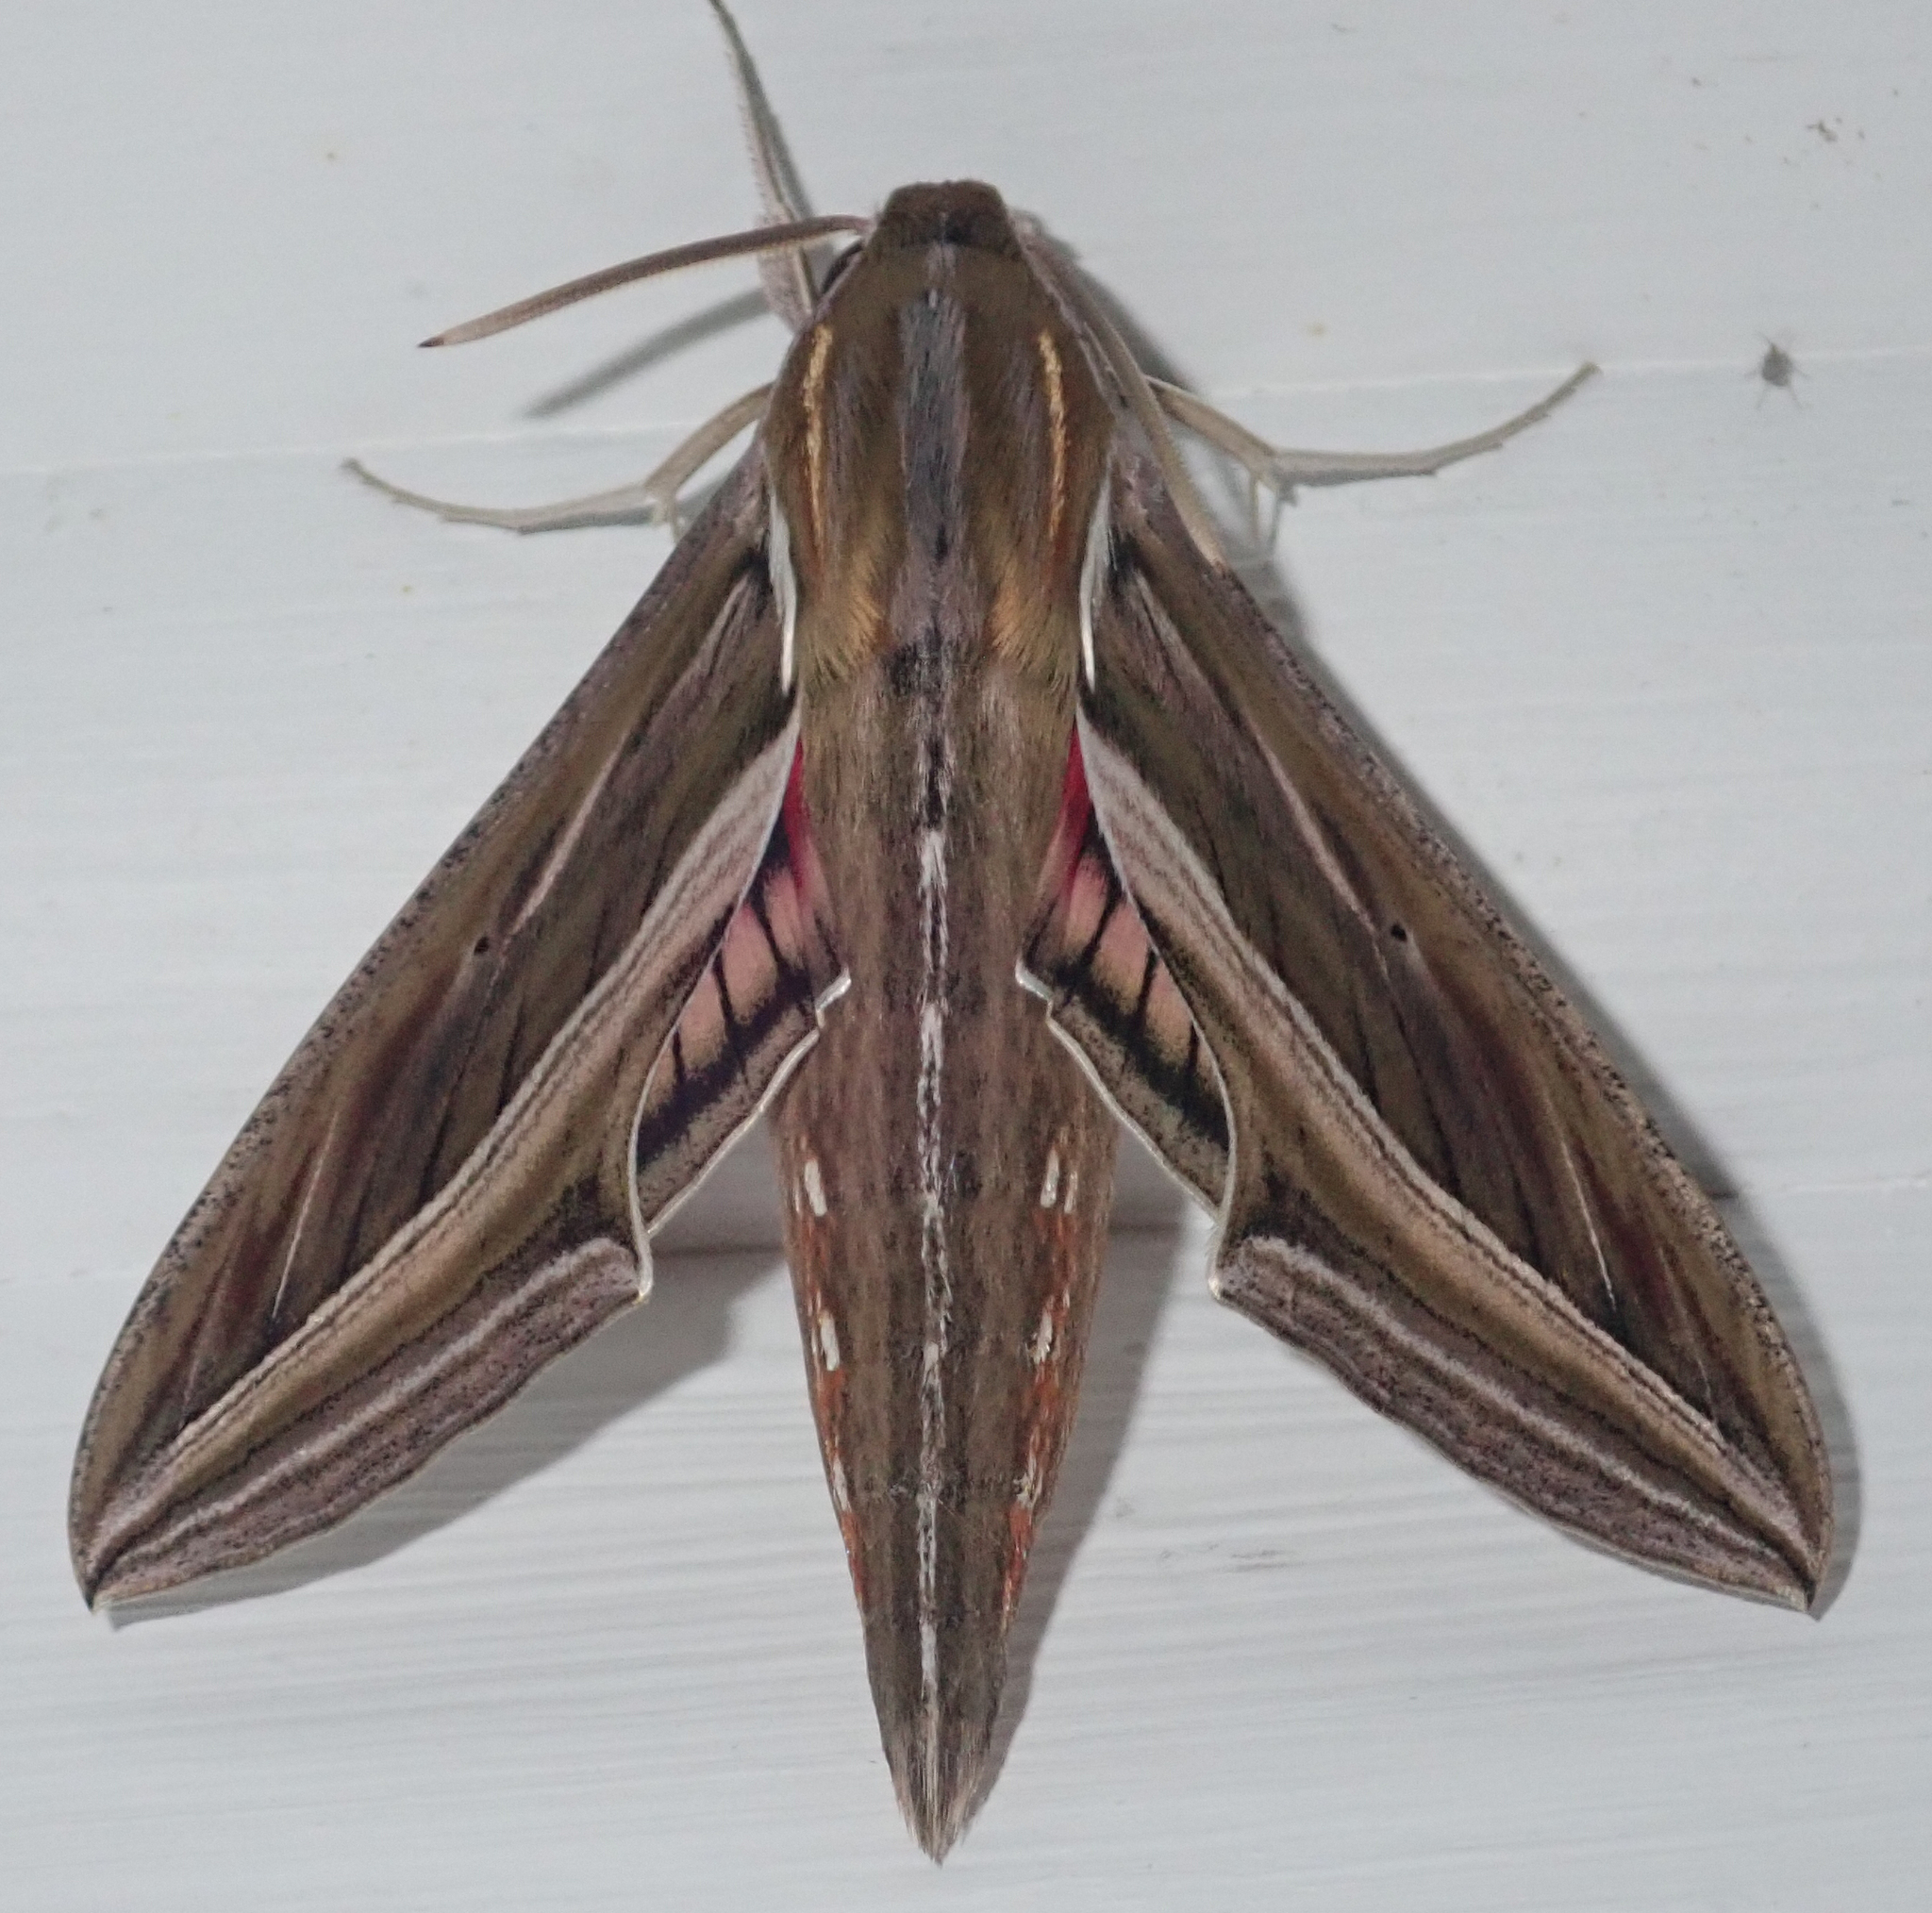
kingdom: Animalia
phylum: Arthropoda
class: Insecta
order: Lepidoptera
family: Sphingidae
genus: Hippotion
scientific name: Hippotion celerio
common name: Silver-striped hawk-moth
